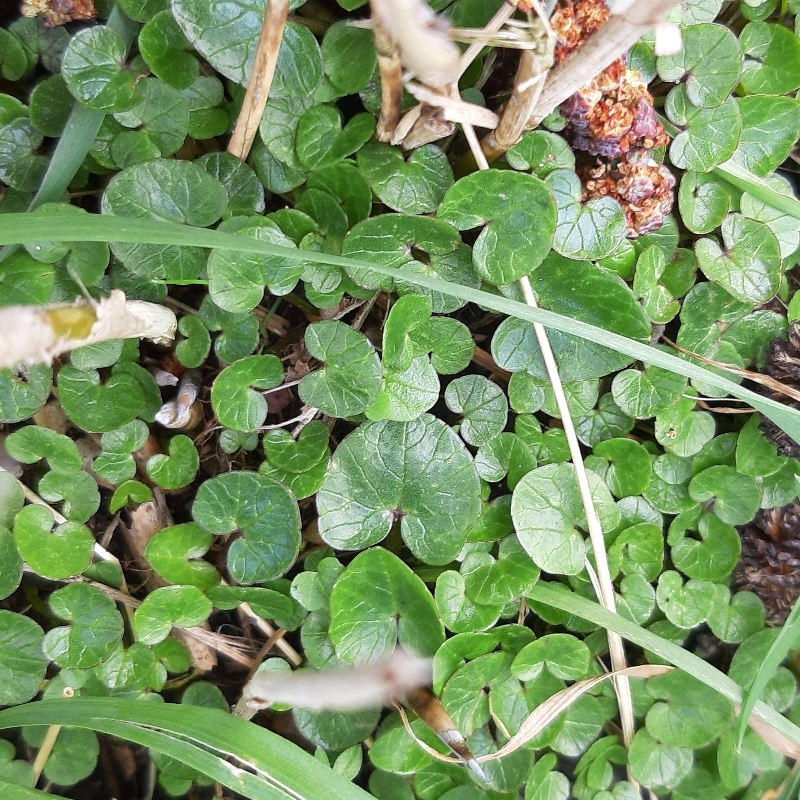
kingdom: Plantae
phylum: Tracheophyta
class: Magnoliopsida
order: Ranunculales
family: Ranunculaceae
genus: Ficaria
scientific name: Ficaria verna
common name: Lesser celandine
